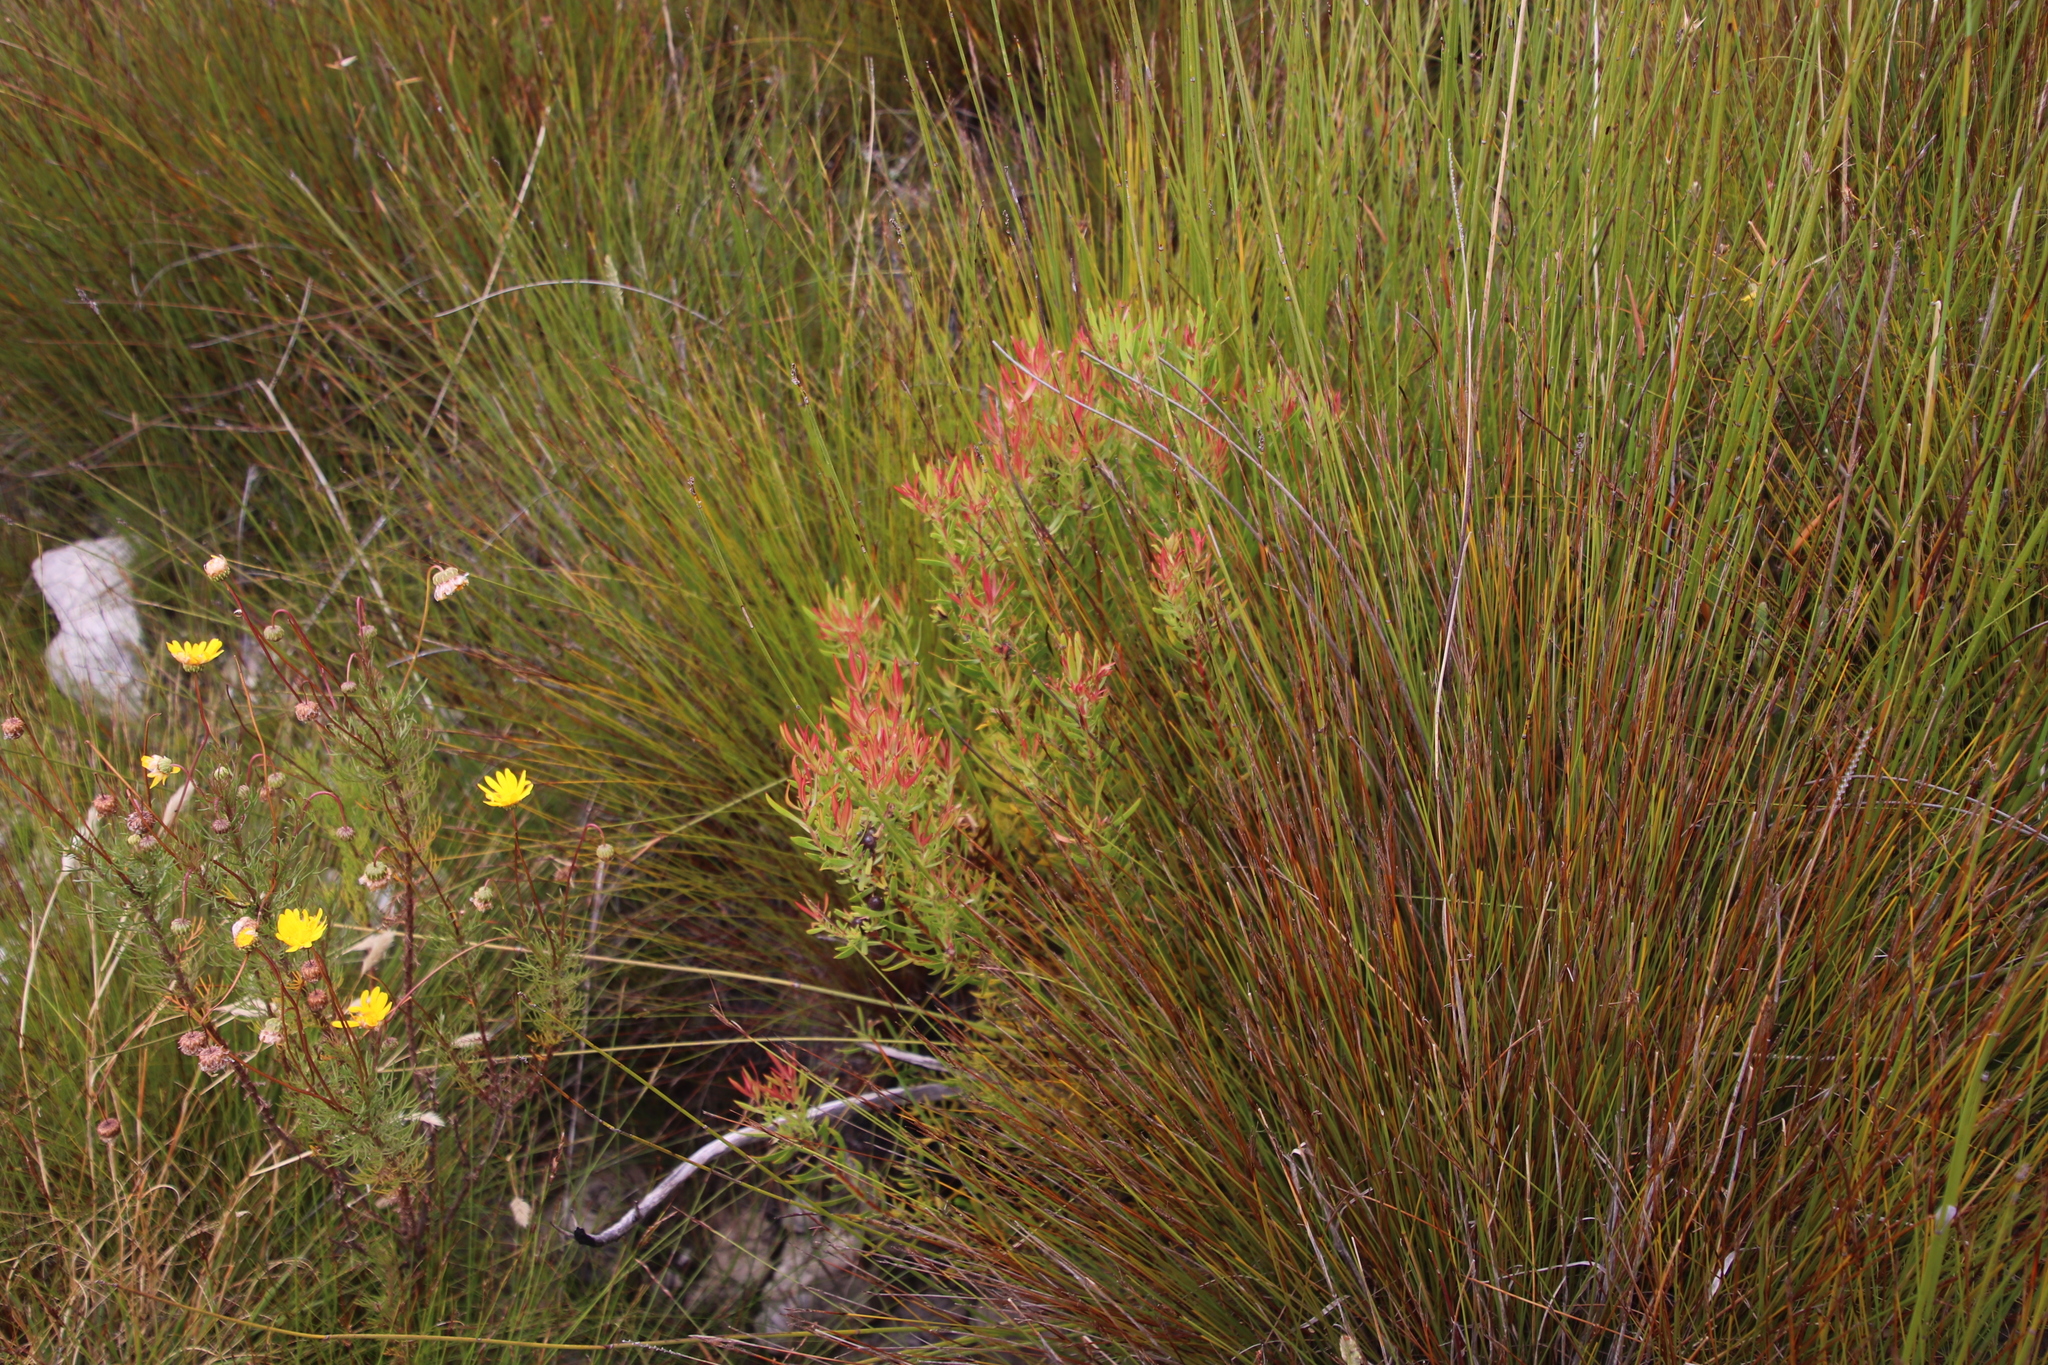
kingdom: Plantae
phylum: Tracheophyta
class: Magnoliopsida
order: Proteales
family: Proteaceae
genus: Leucadendron
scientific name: Leucadendron spissifolium
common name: Spear-leaf conebush
